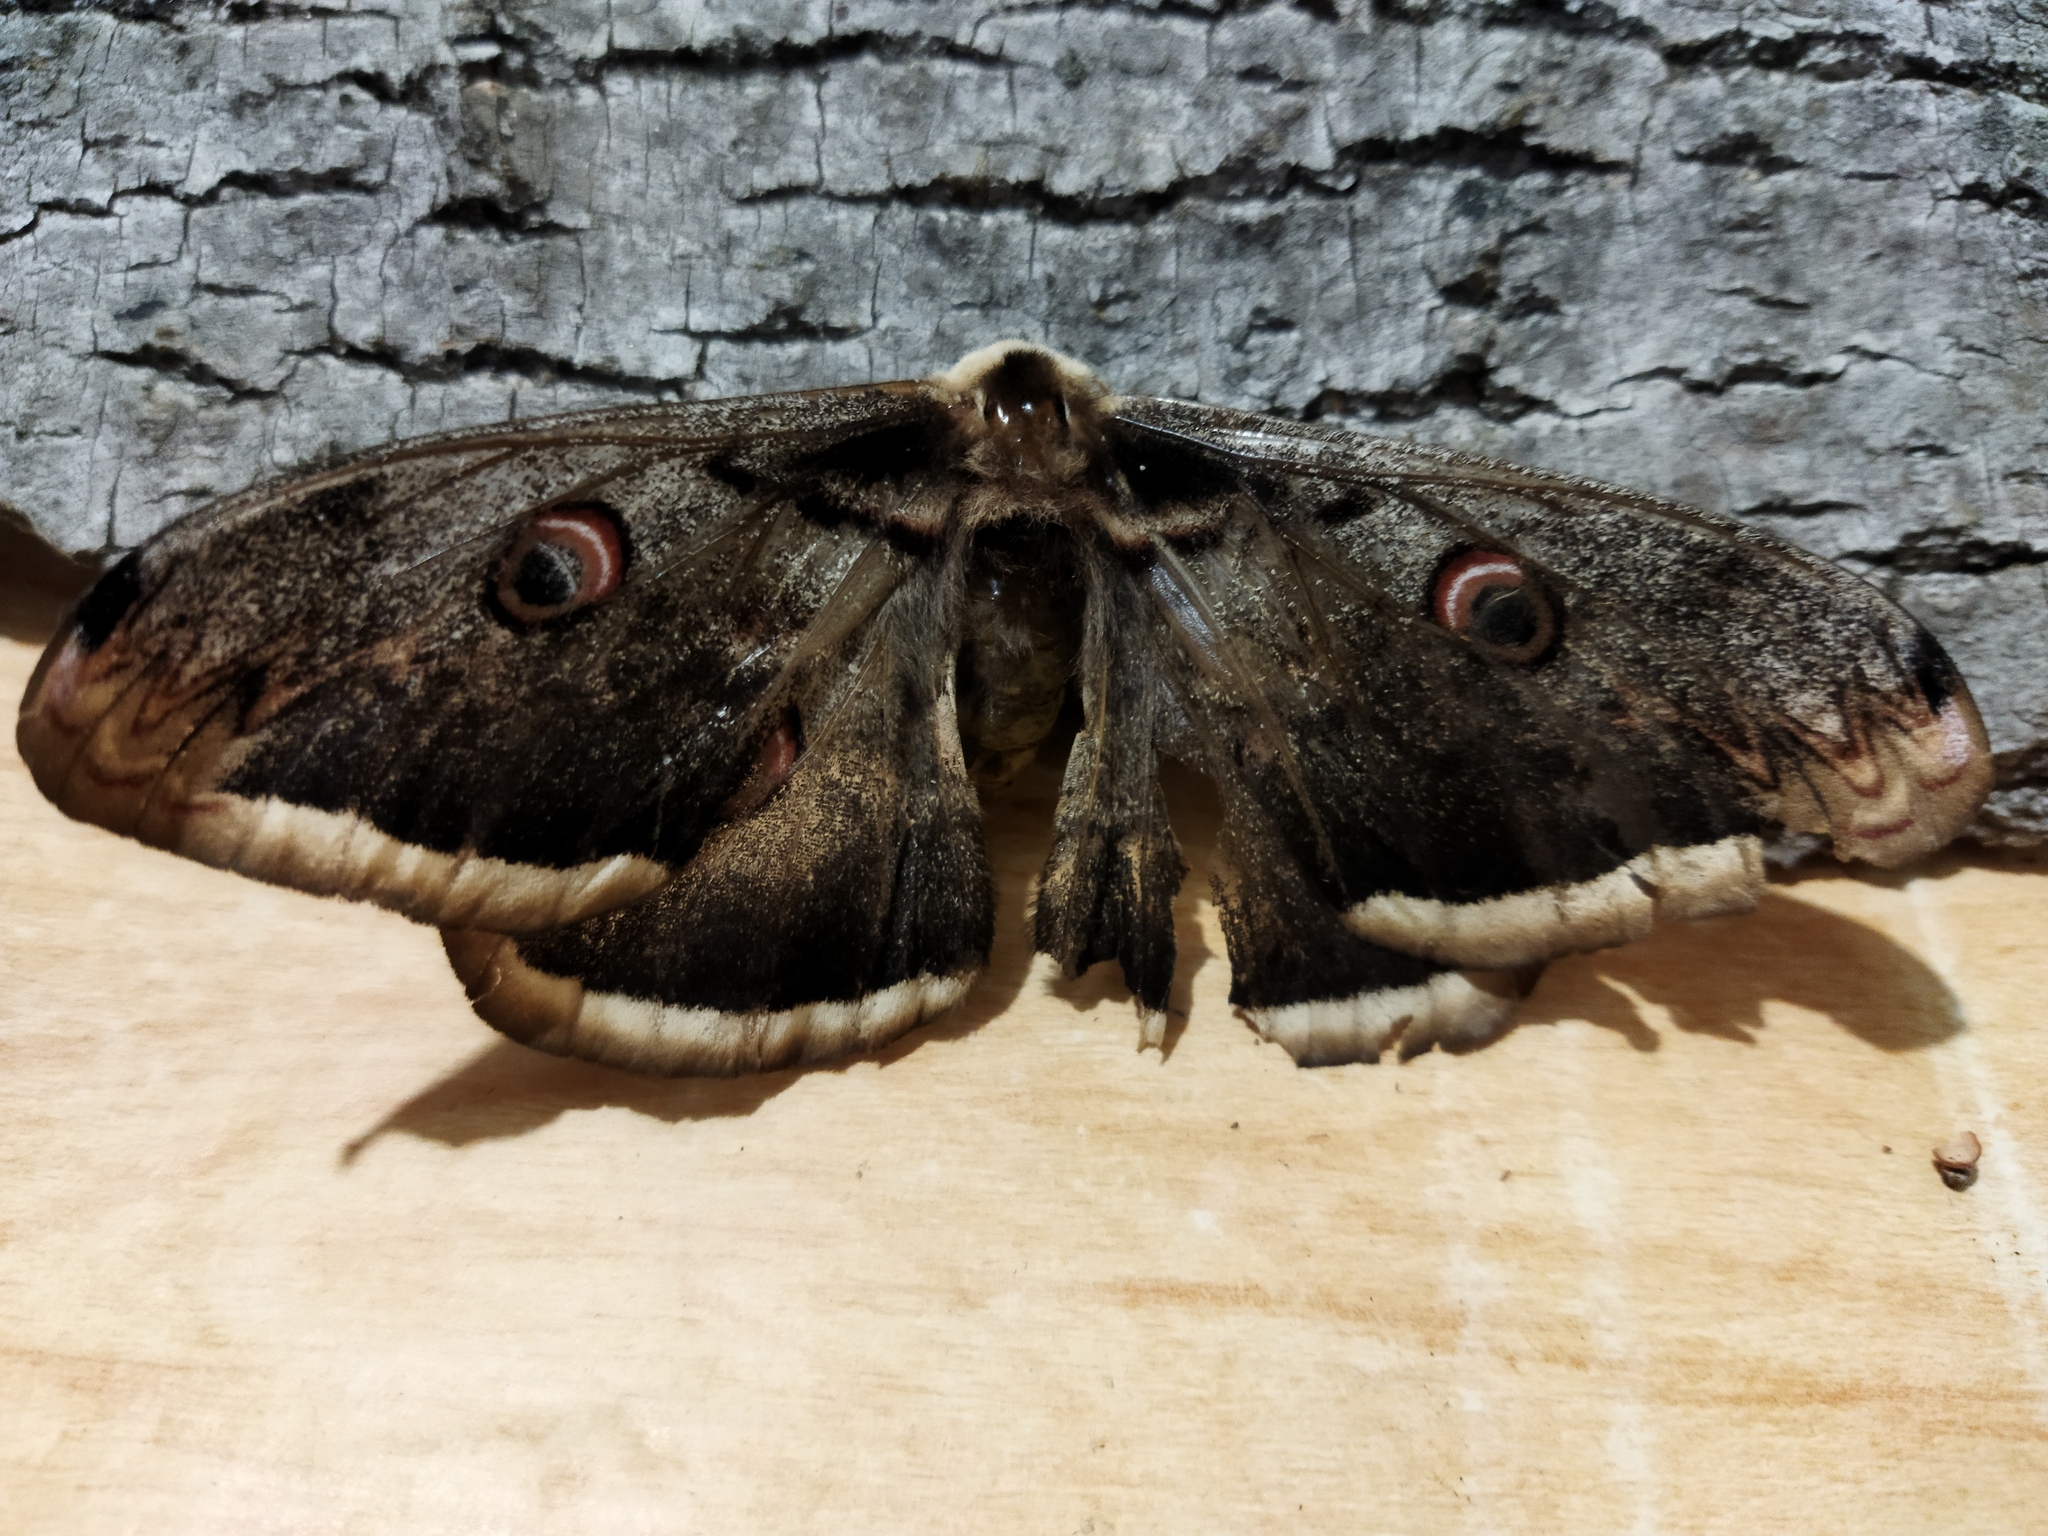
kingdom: Animalia
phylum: Arthropoda
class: Insecta
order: Lepidoptera
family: Saturniidae
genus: Saturnia
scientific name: Saturnia pyri
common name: Great peacock moth
